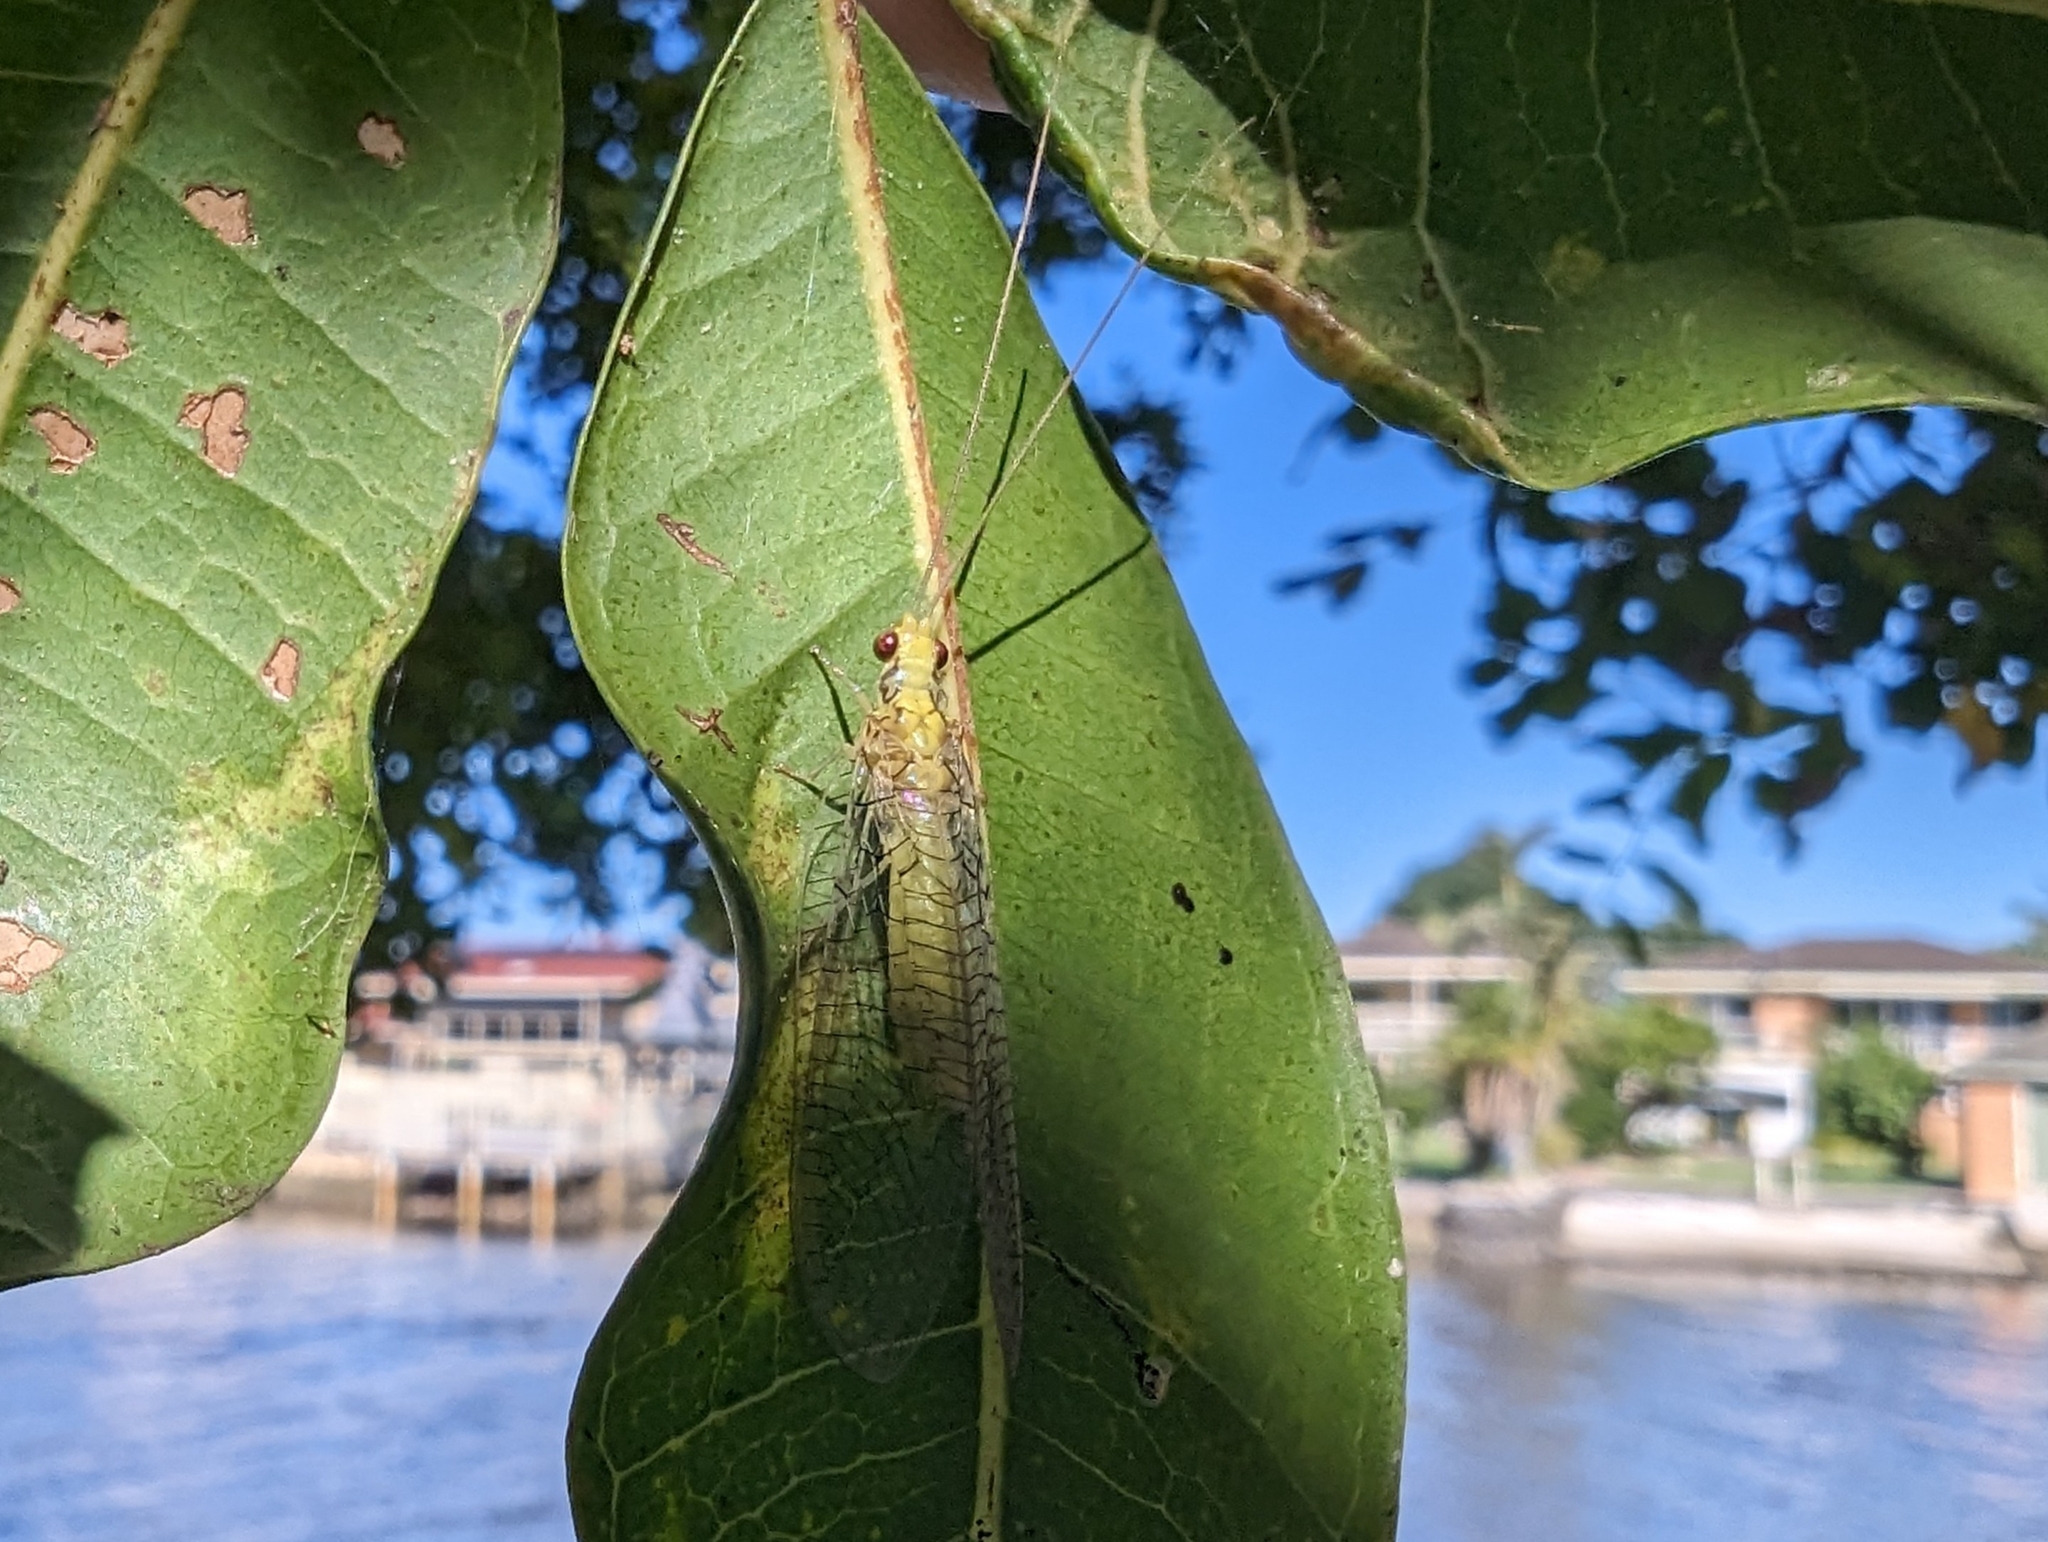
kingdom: Animalia
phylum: Arthropoda
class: Insecta
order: Neuroptera
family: Chrysopidae
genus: Italochrysa
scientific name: Italochrysa insignis
